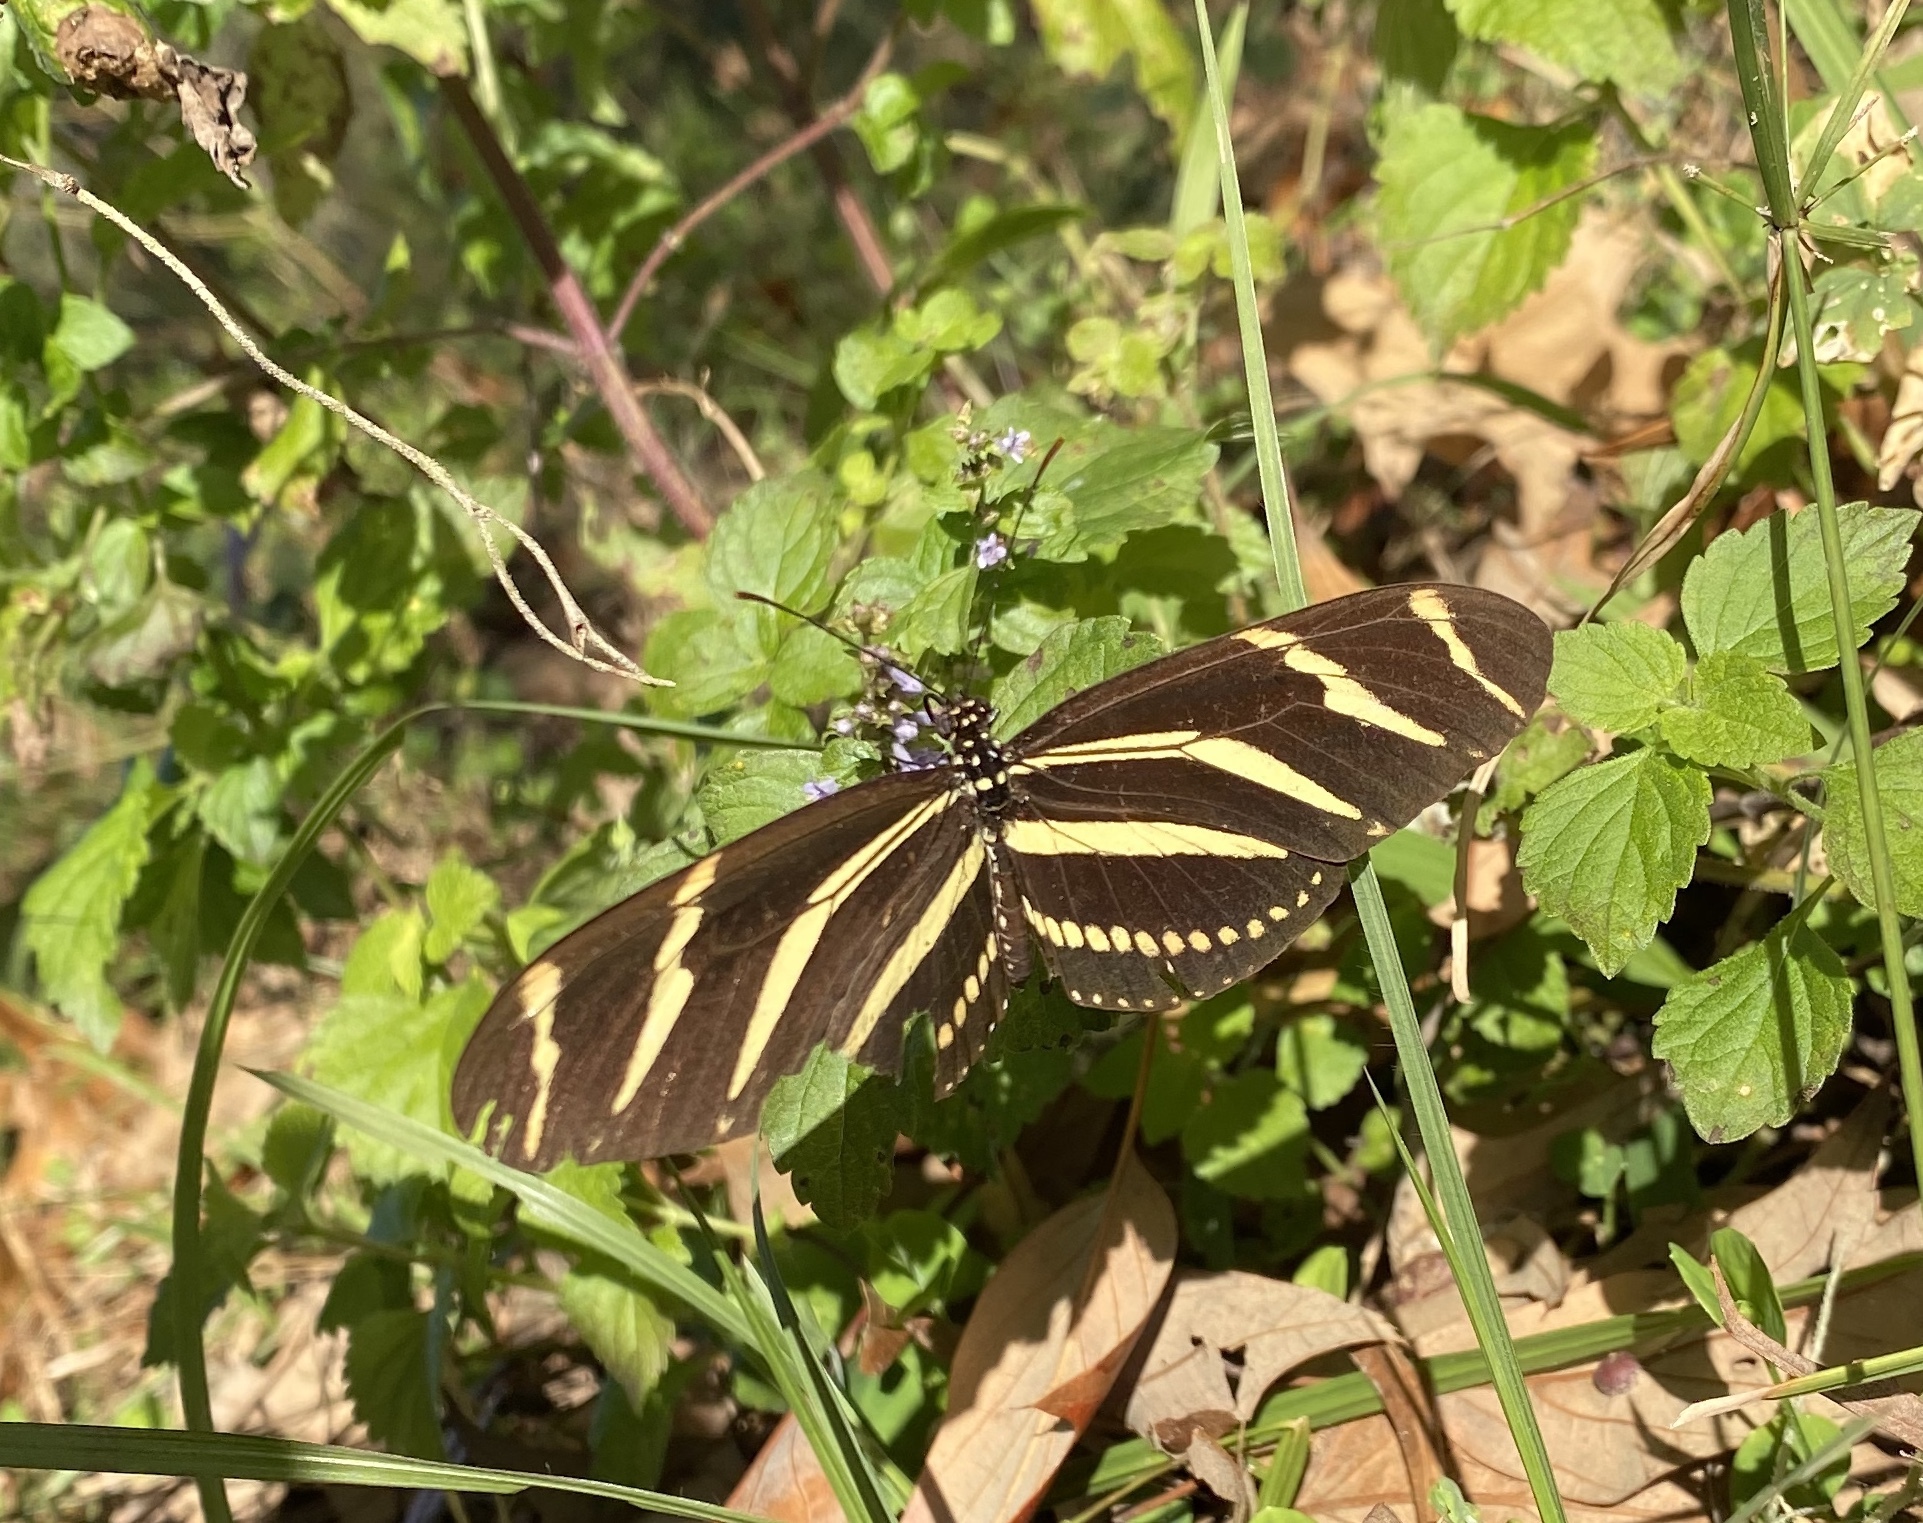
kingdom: Animalia
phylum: Arthropoda
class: Insecta
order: Lepidoptera
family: Nymphalidae
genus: Heliconius
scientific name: Heliconius charithonia
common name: Zebra long wing
